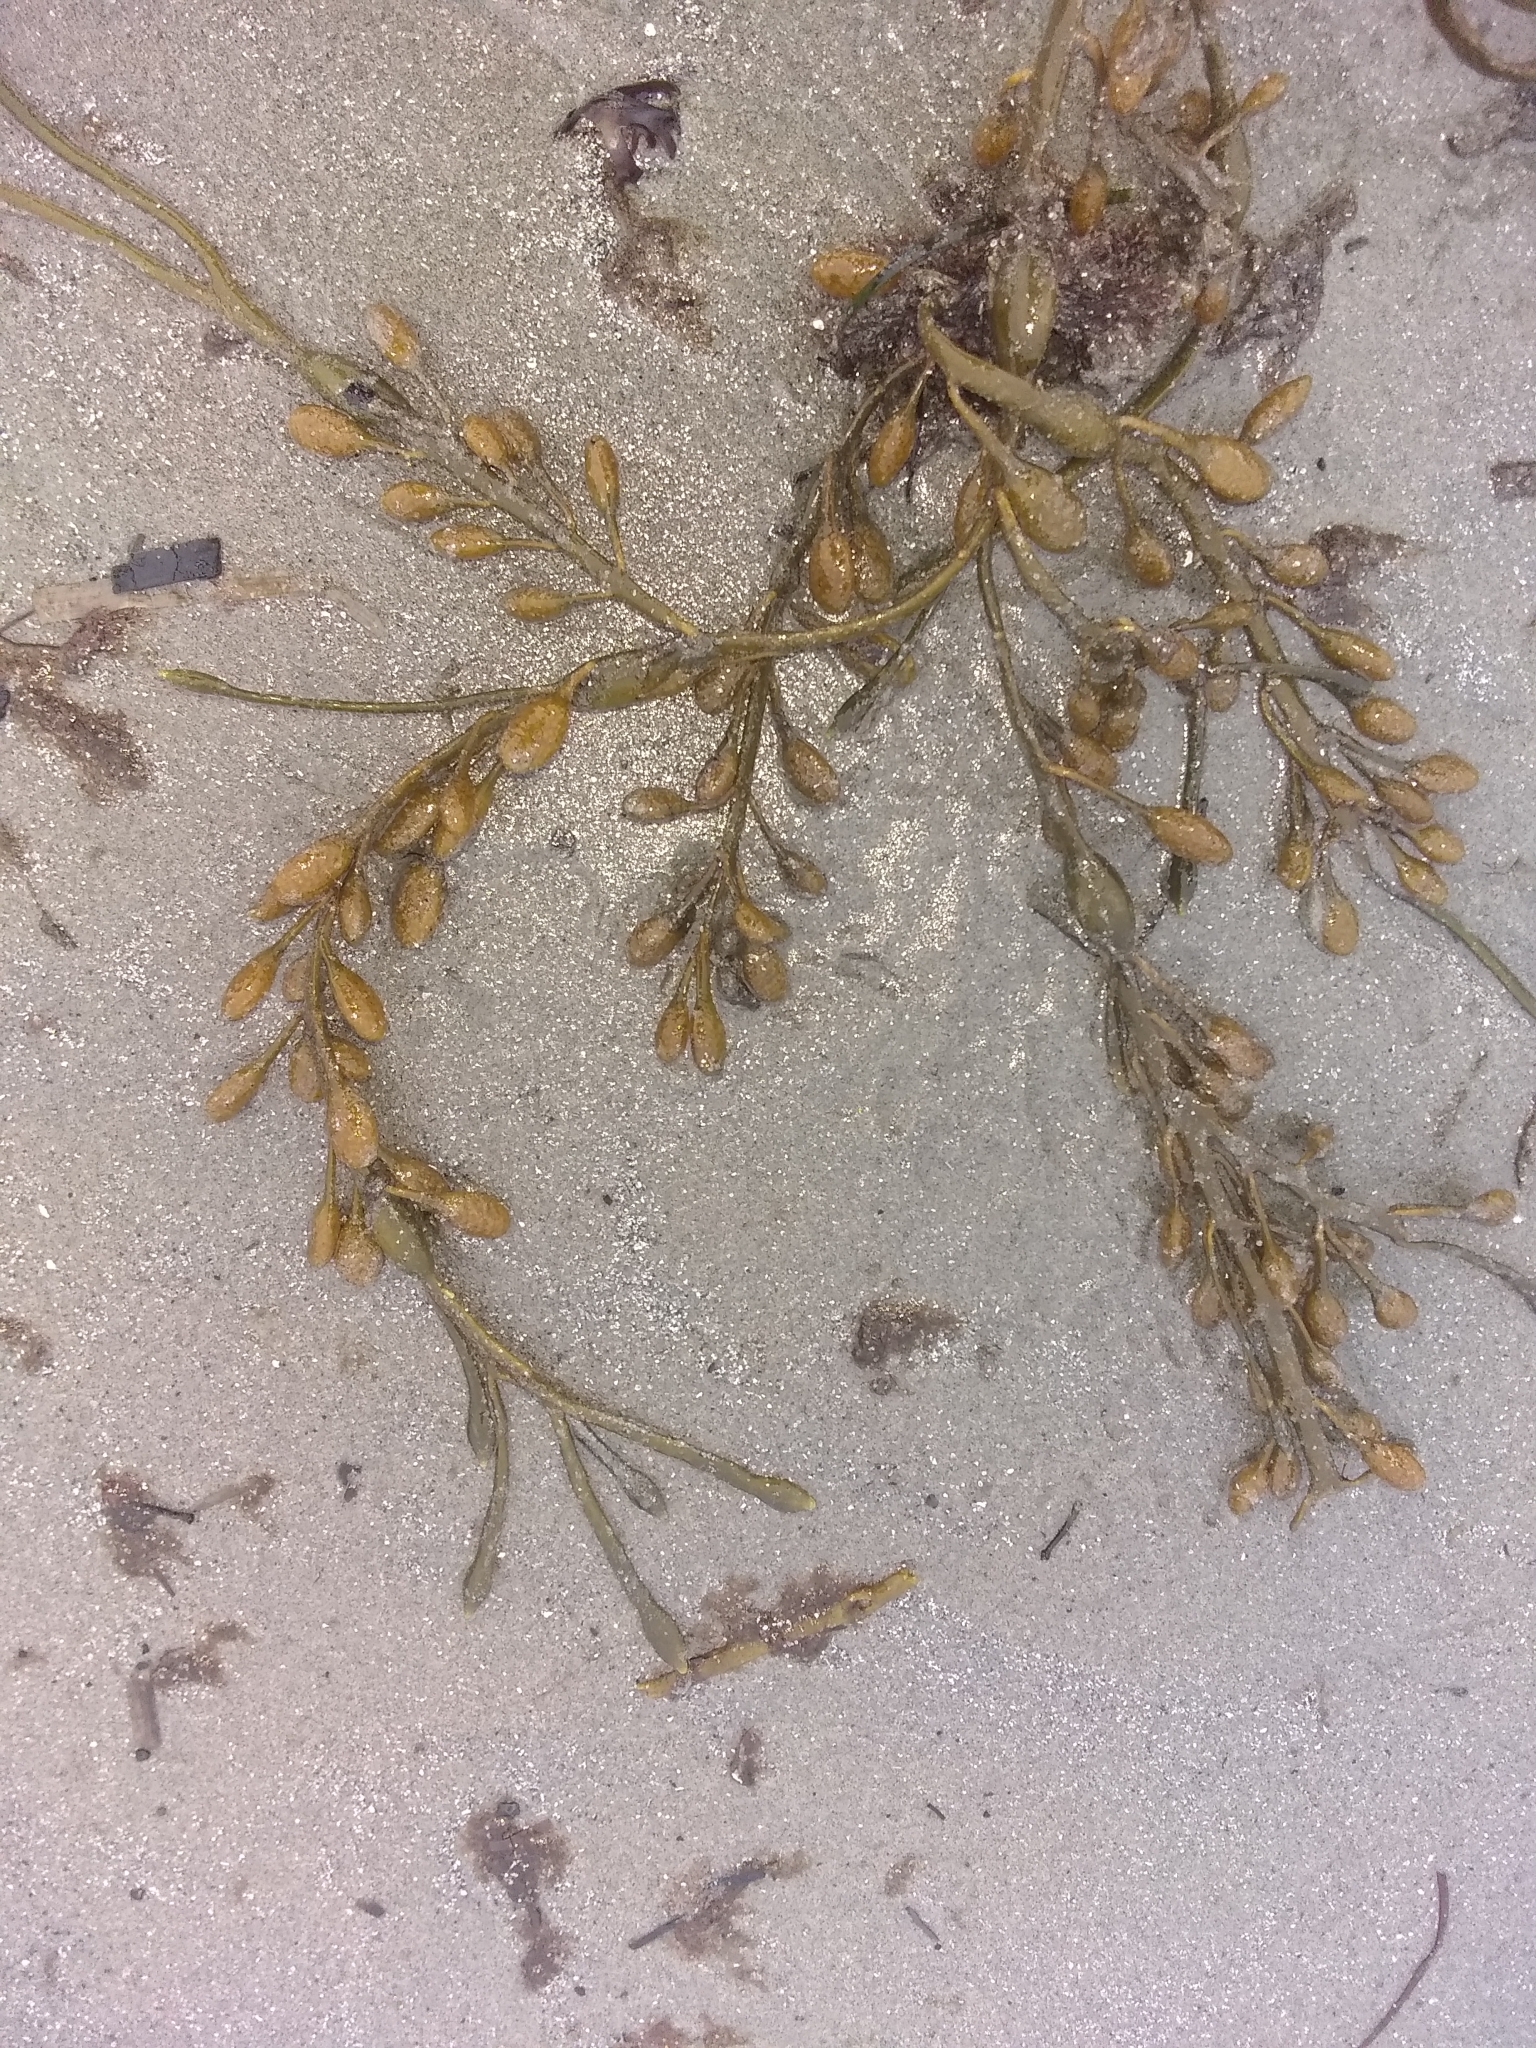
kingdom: Chromista
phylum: Ochrophyta
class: Phaeophyceae
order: Fucales
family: Fucaceae
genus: Ascophyllum
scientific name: Ascophyllum nodosum
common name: Knotted wrack
